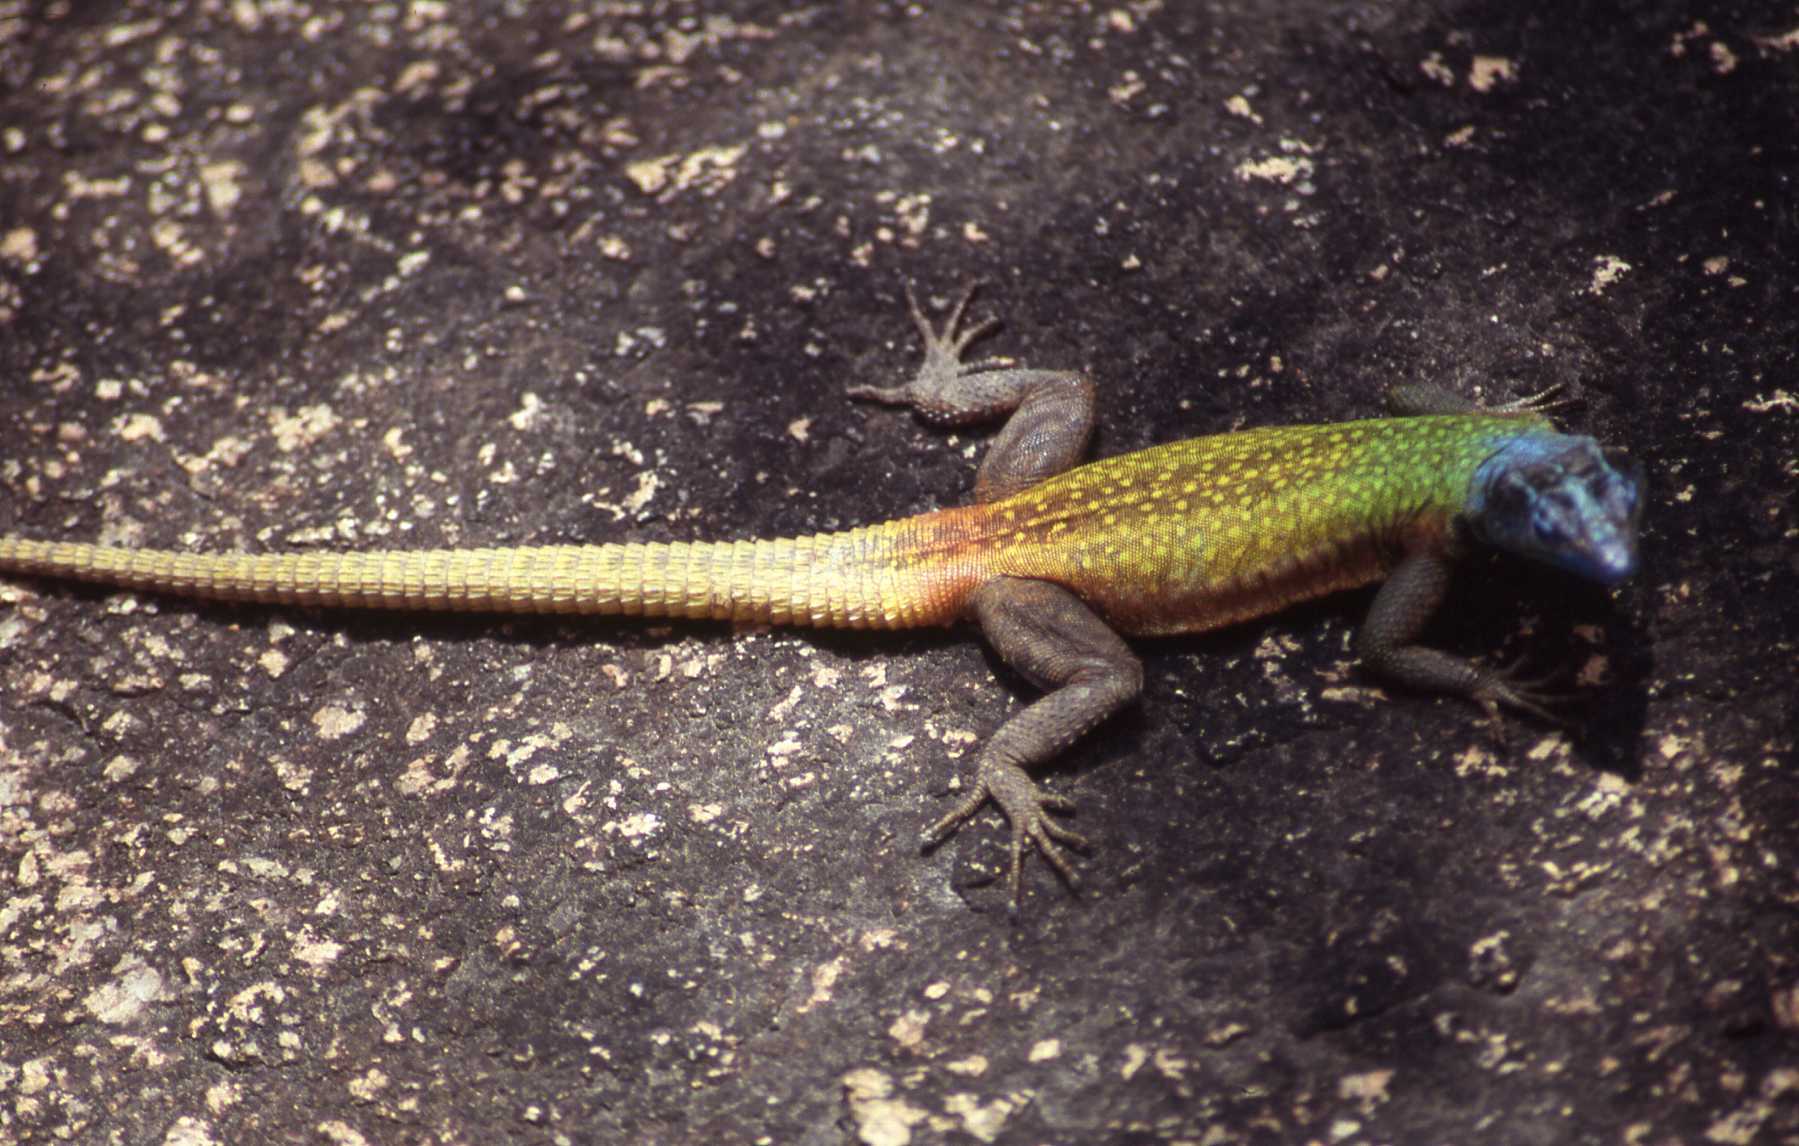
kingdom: Animalia
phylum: Chordata
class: Squamata
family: Cordylidae
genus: Platysaurus
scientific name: Platysaurus intermedius
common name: Common flat lizard
